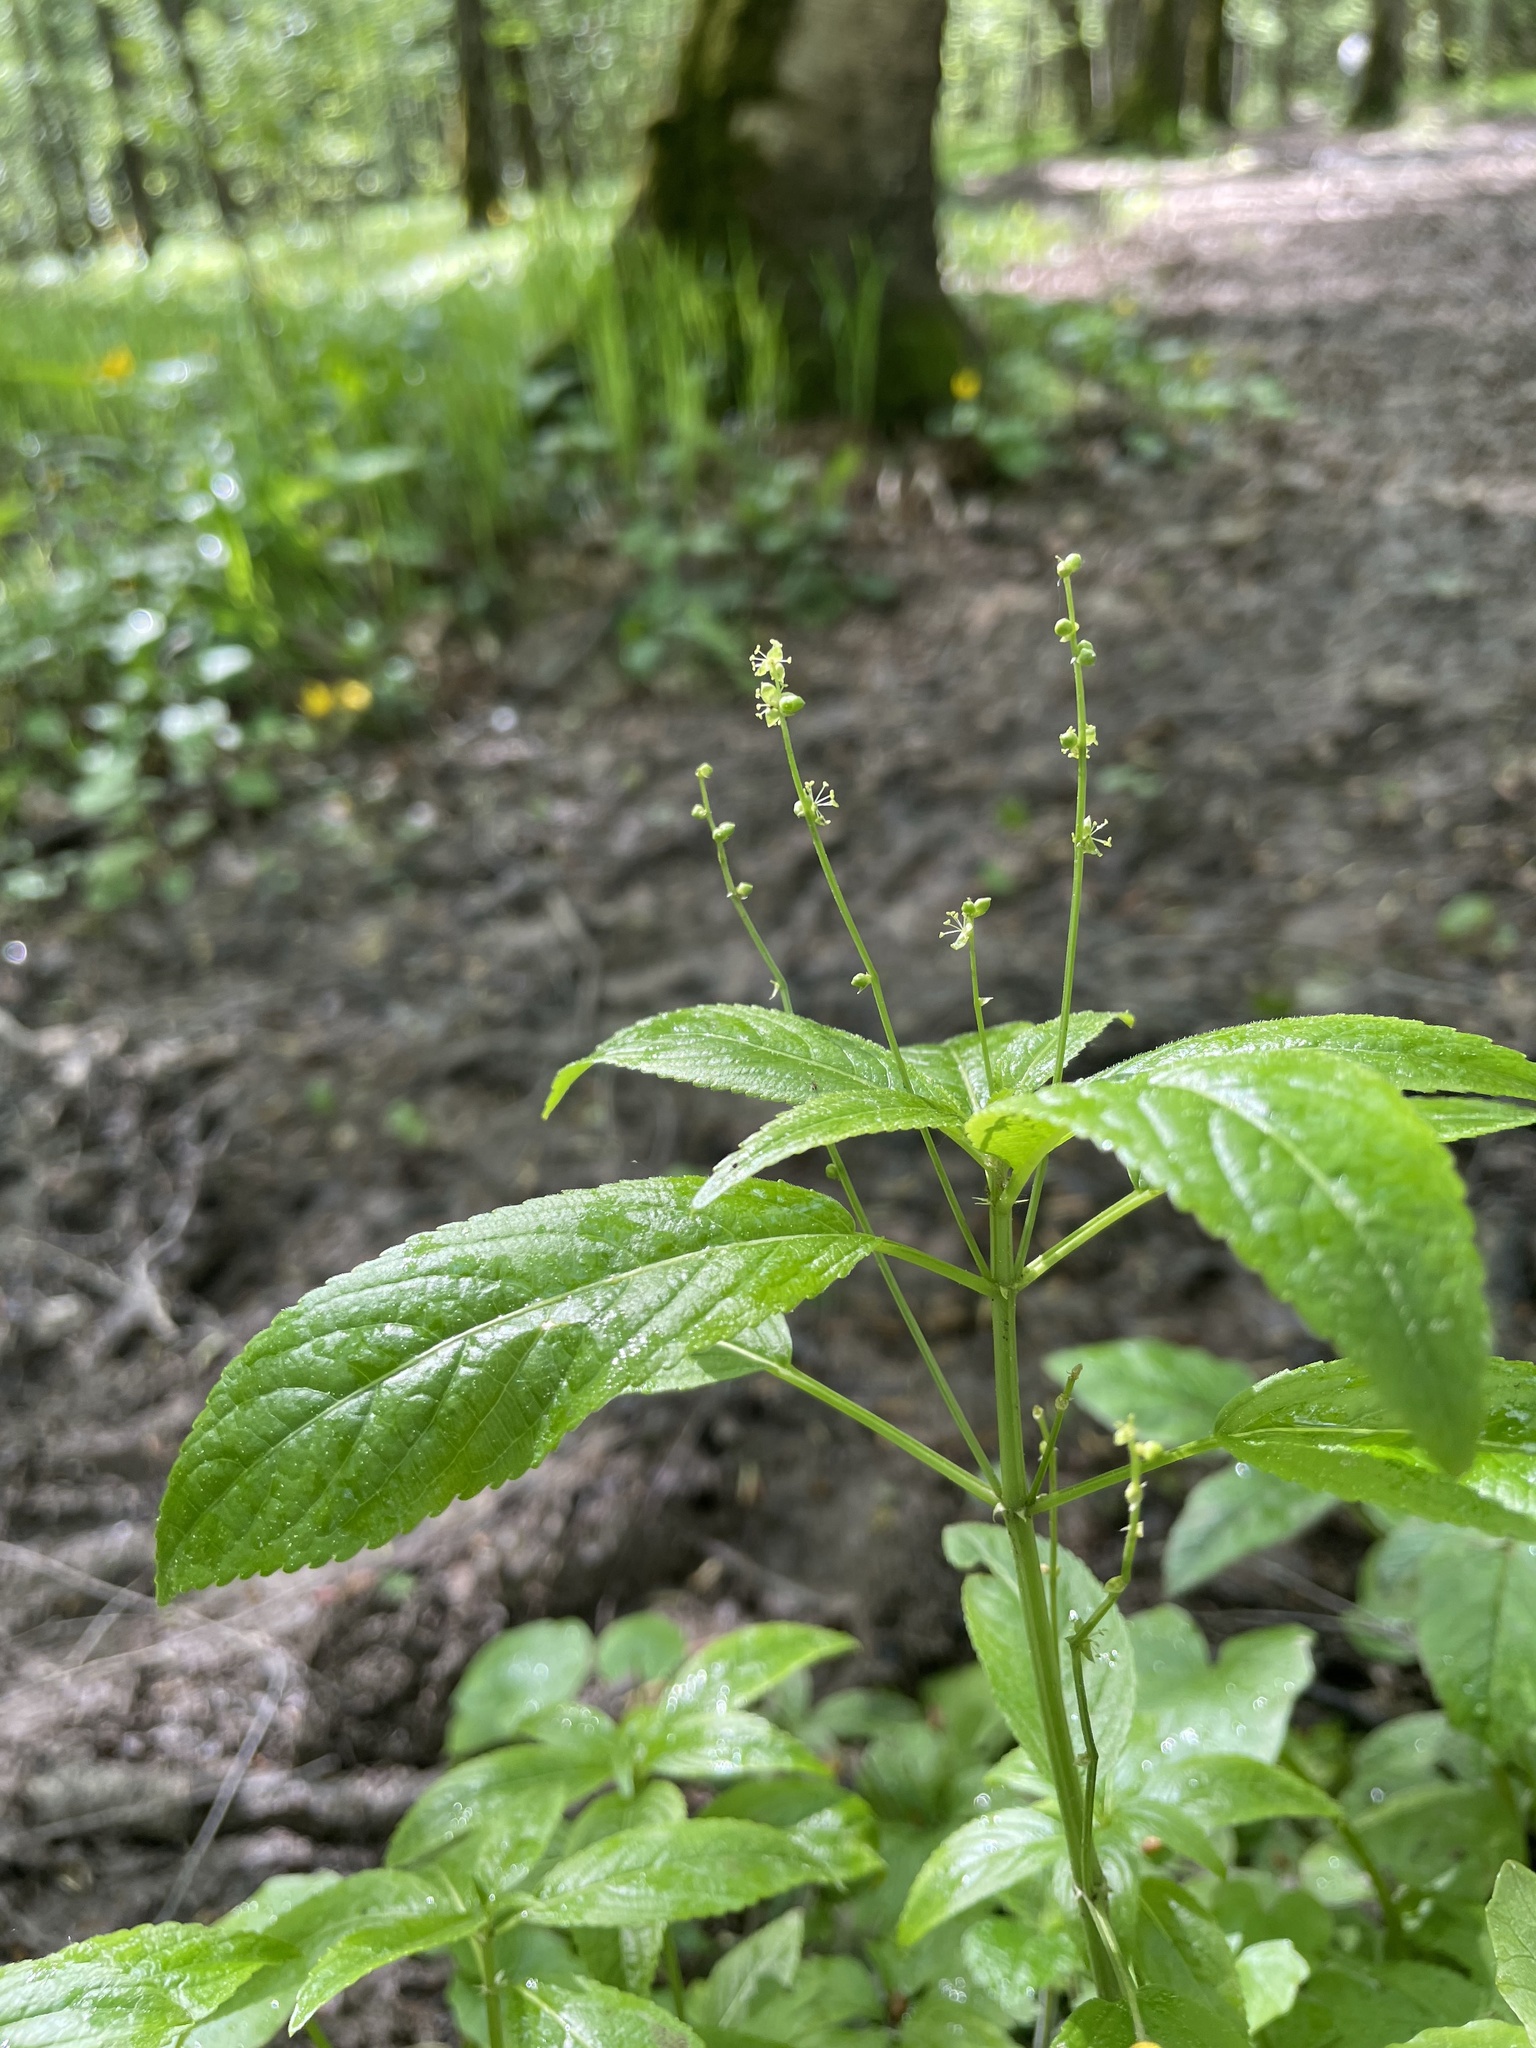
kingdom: Plantae
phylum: Tracheophyta
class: Magnoliopsida
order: Malpighiales
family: Euphorbiaceae
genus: Mercurialis
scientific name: Mercurialis perennis
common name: Dog mercury
